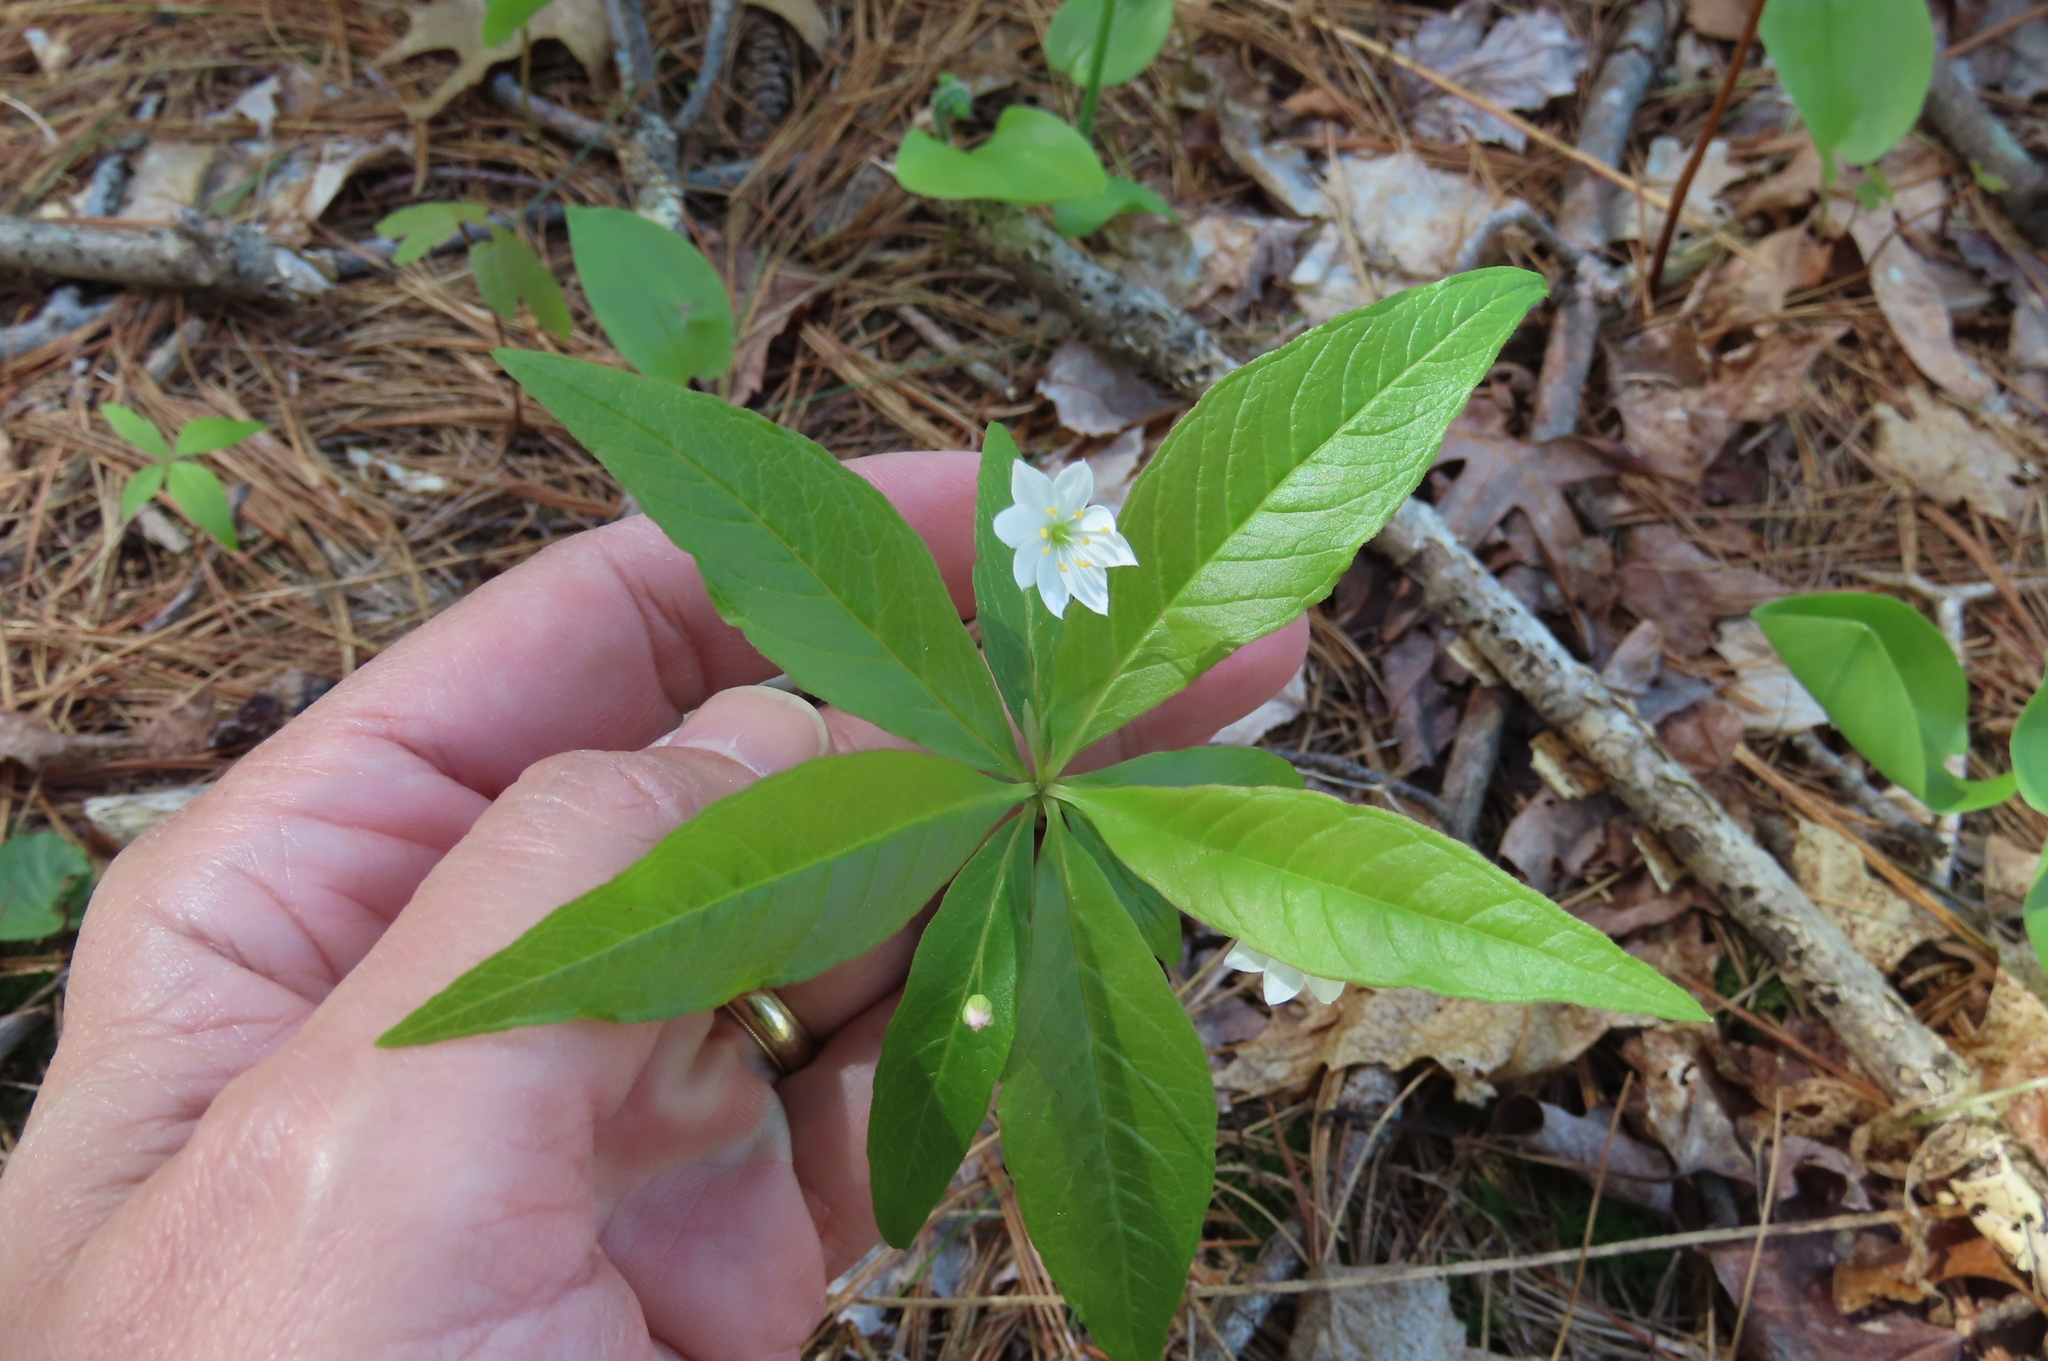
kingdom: Plantae
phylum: Tracheophyta
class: Magnoliopsida
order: Ericales
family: Primulaceae
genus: Lysimachia
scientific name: Lysimachia borealis
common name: American starflower
